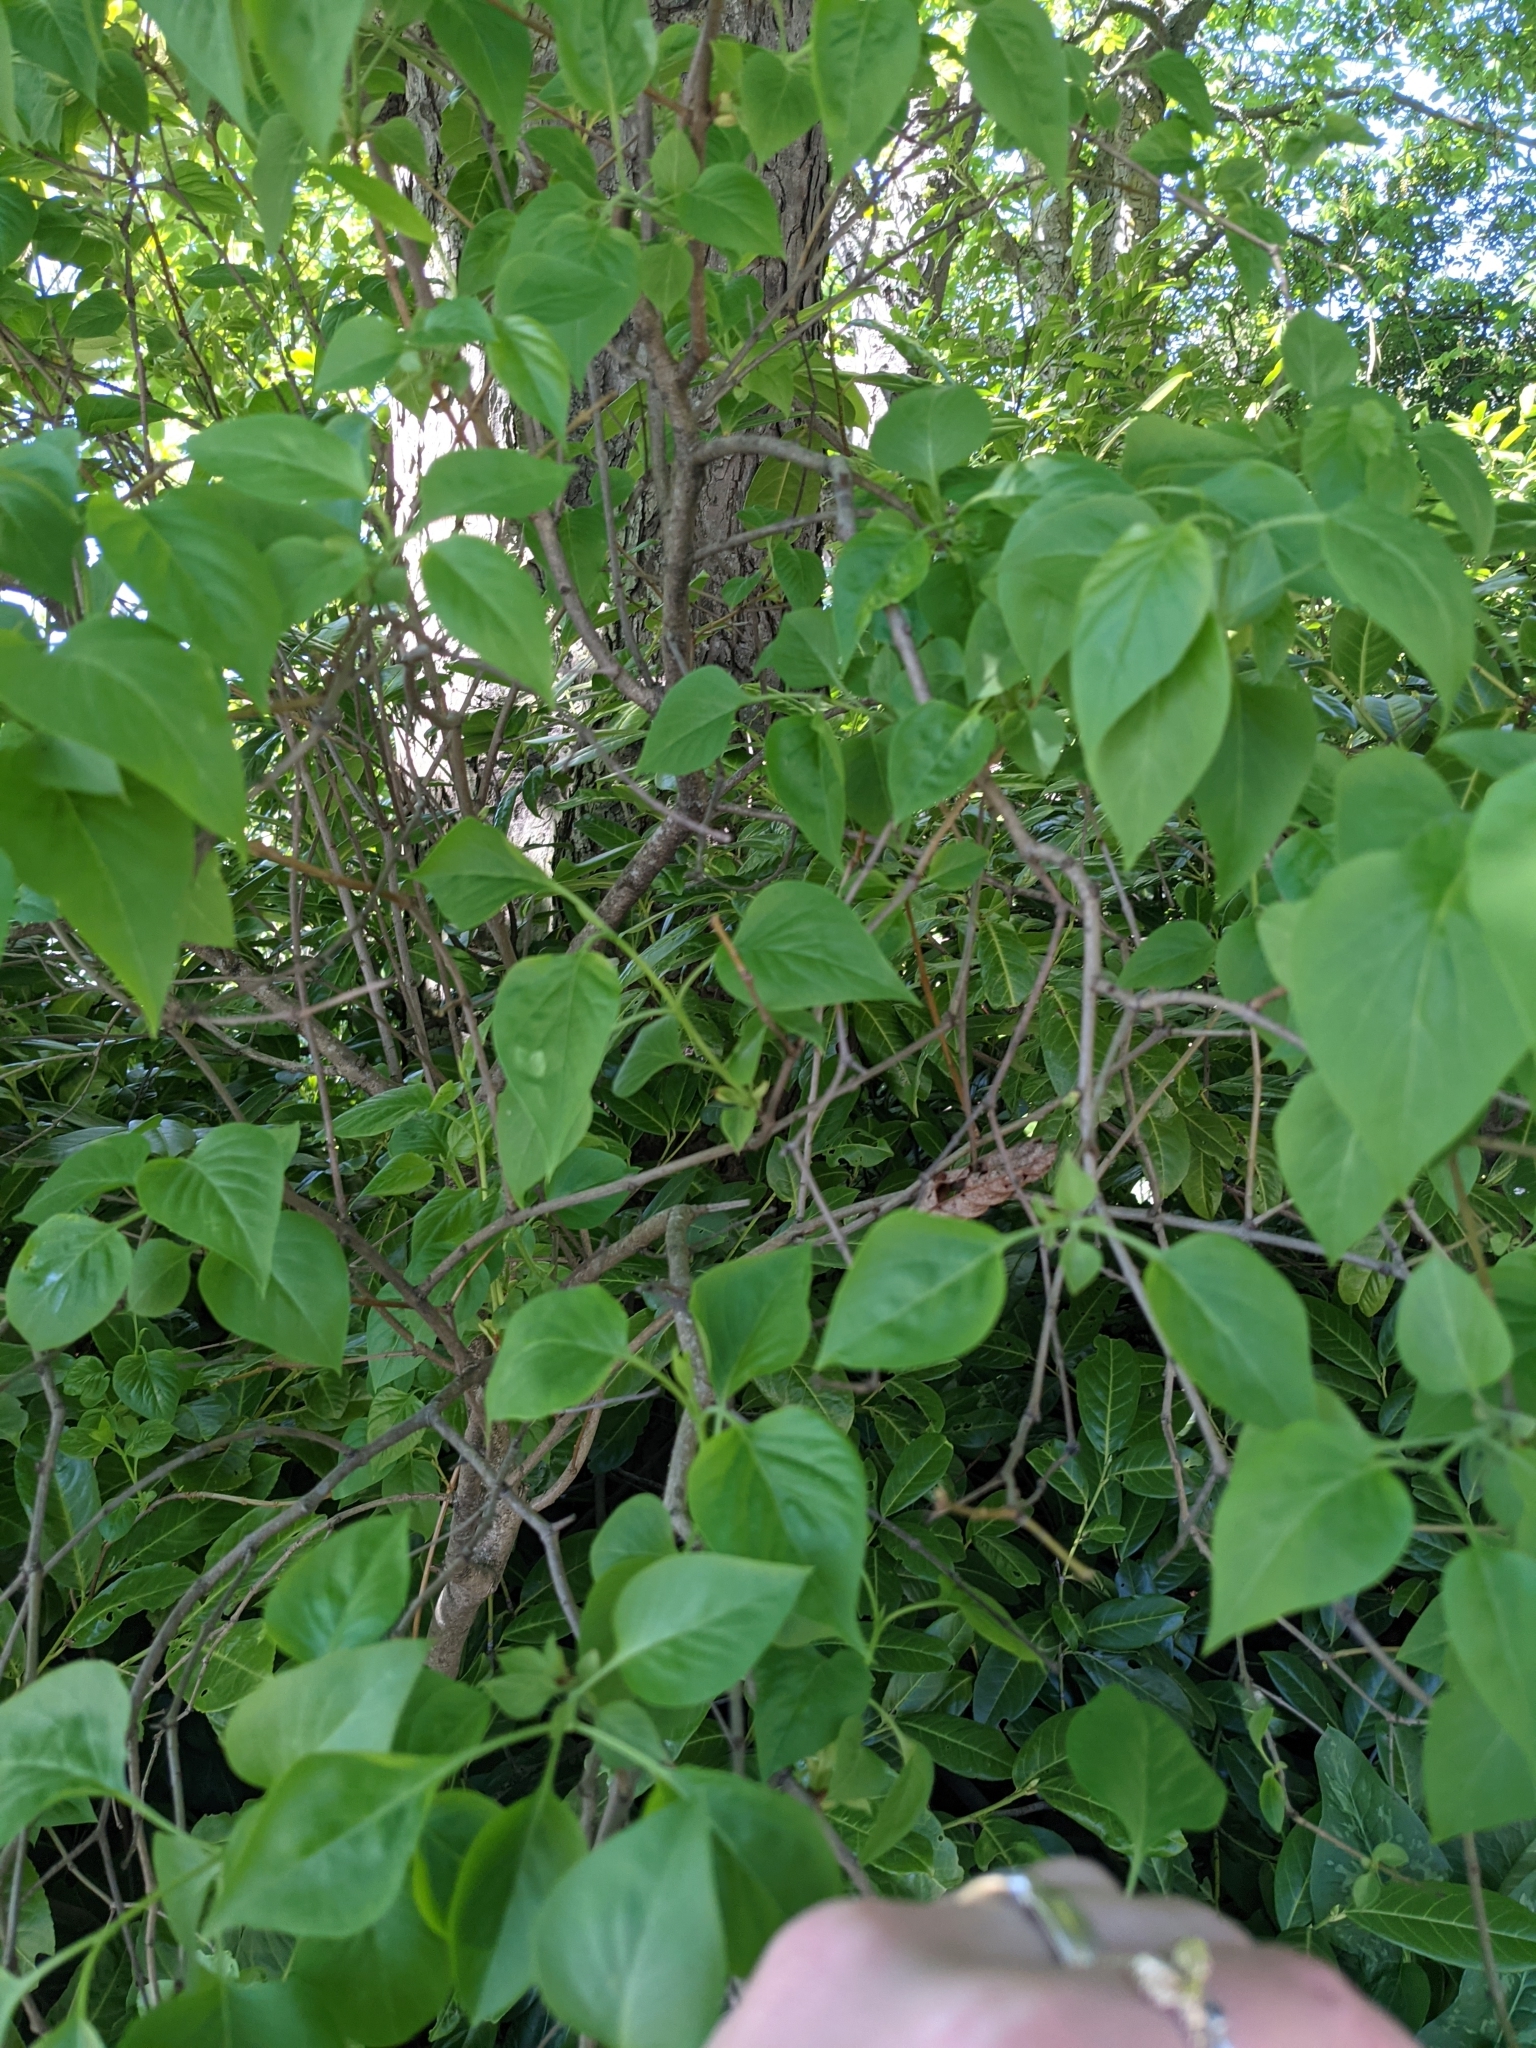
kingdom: Plantae
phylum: Tracheophyta
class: Magnoliopsida
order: Lamiales
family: Oleaceae
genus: Syringa
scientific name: Syringa vulgaris
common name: Common lilac
